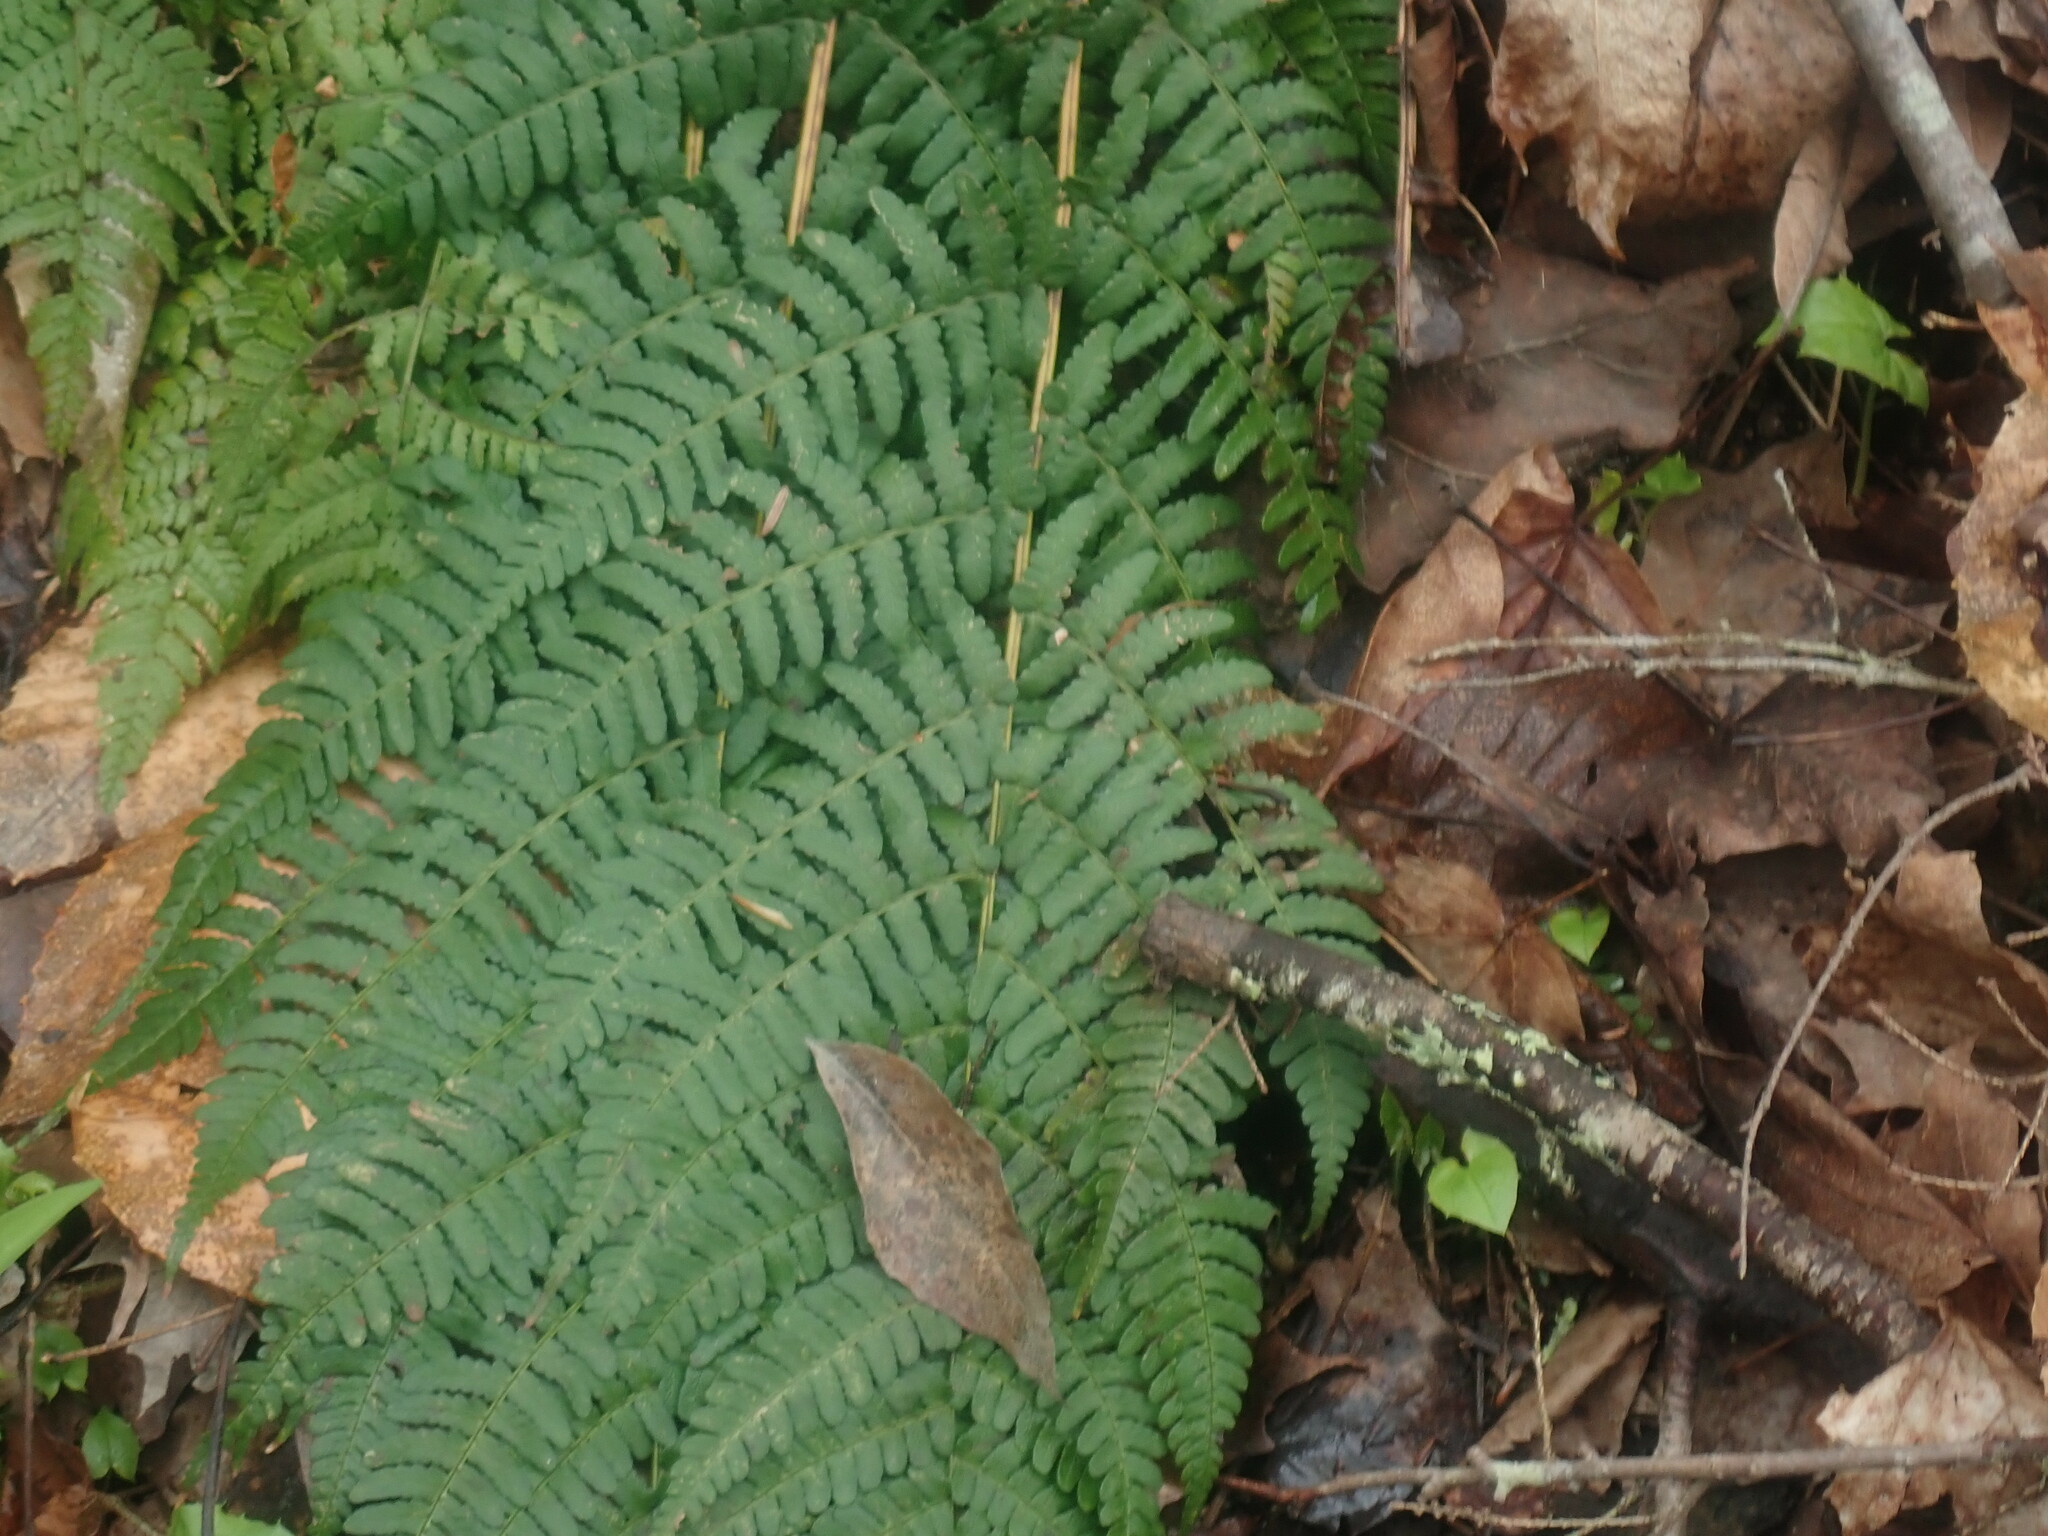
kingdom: Plantae
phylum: Tracheophyta
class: Polypodiopsida
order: Polypodiales
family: Dryopteridaceae
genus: Dryopteris
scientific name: Dryopteris marginalis
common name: Marginal wood fern
